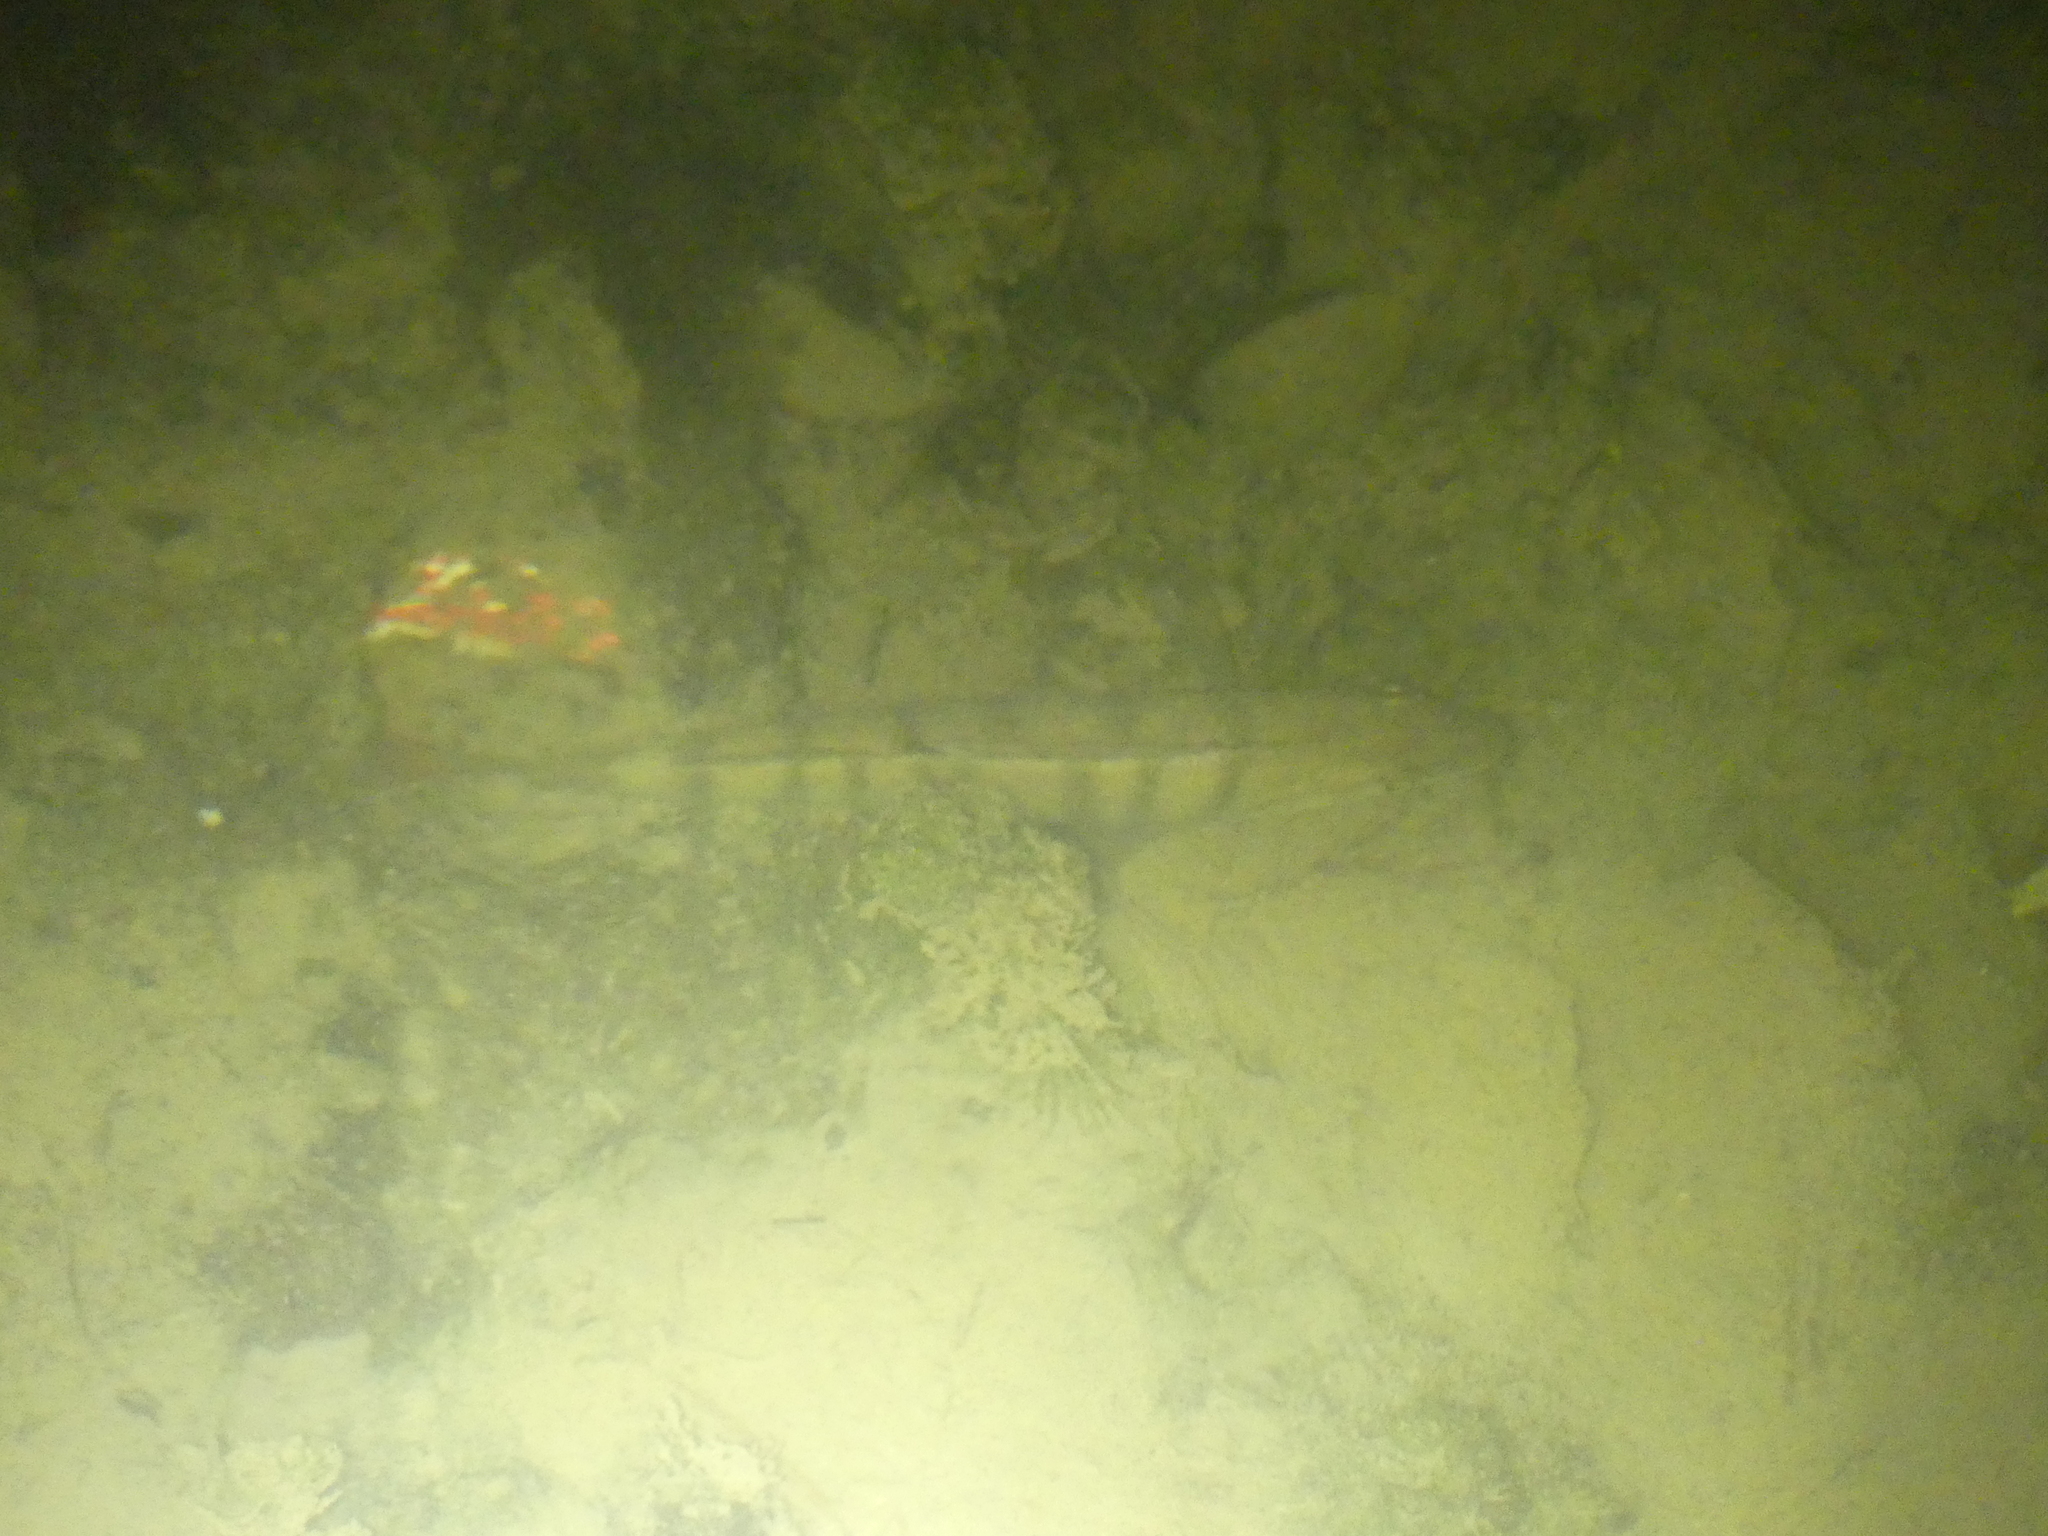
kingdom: Animalia
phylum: Chordata
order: Perciformes
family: Percidae
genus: Perca
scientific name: Perca fluviatilis
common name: Perch
